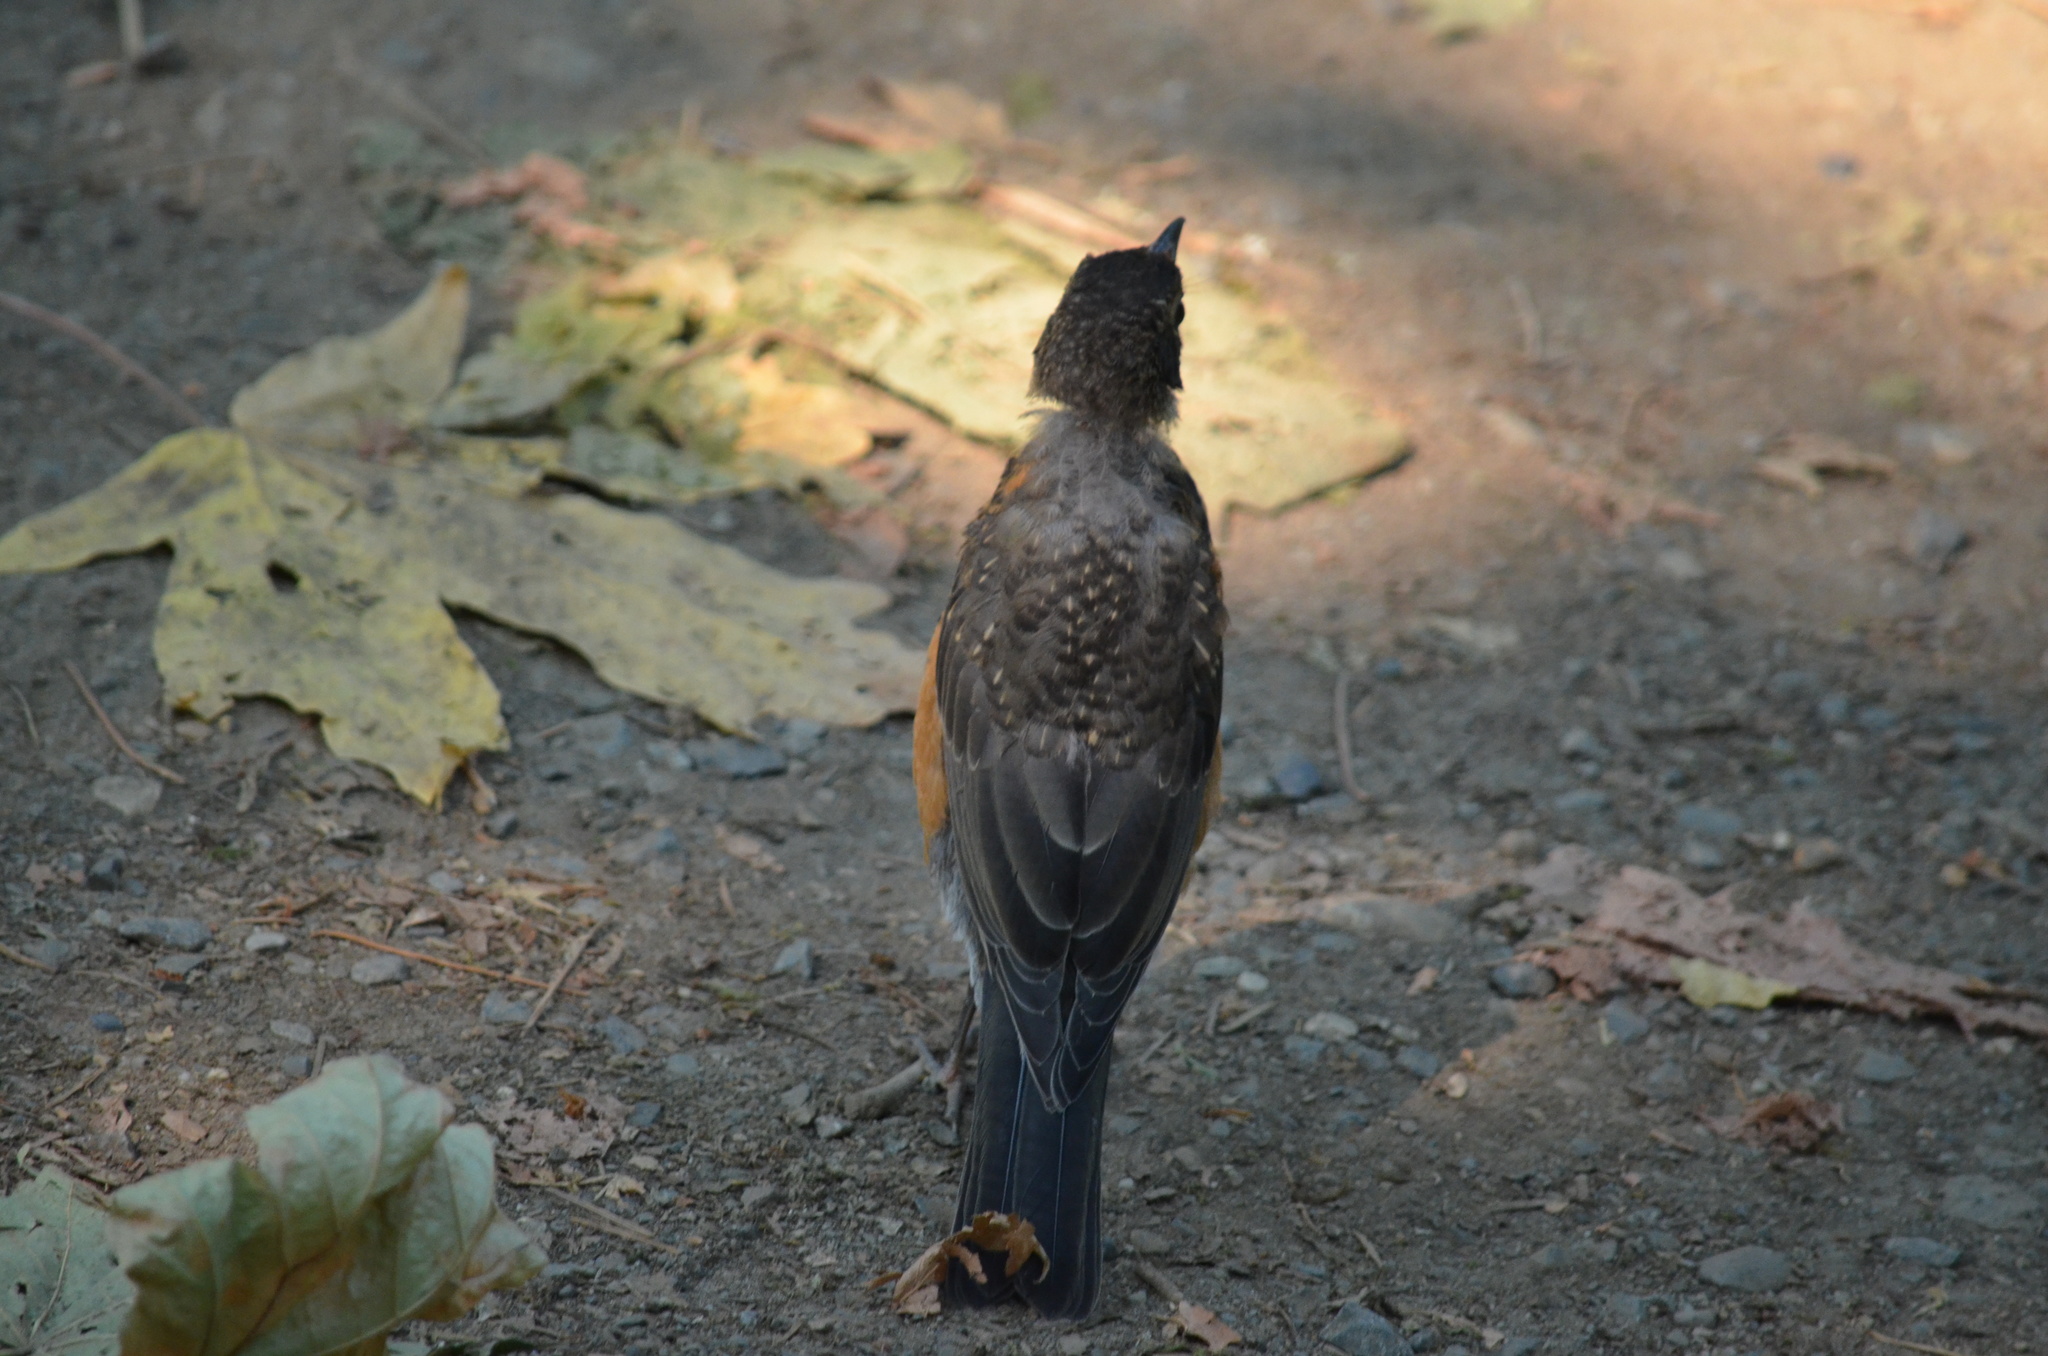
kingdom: Animalia
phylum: Chordata
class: Aves
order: Passeriformes
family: Turdidae
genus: Turdus
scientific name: Turdus migratorius
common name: American robin
